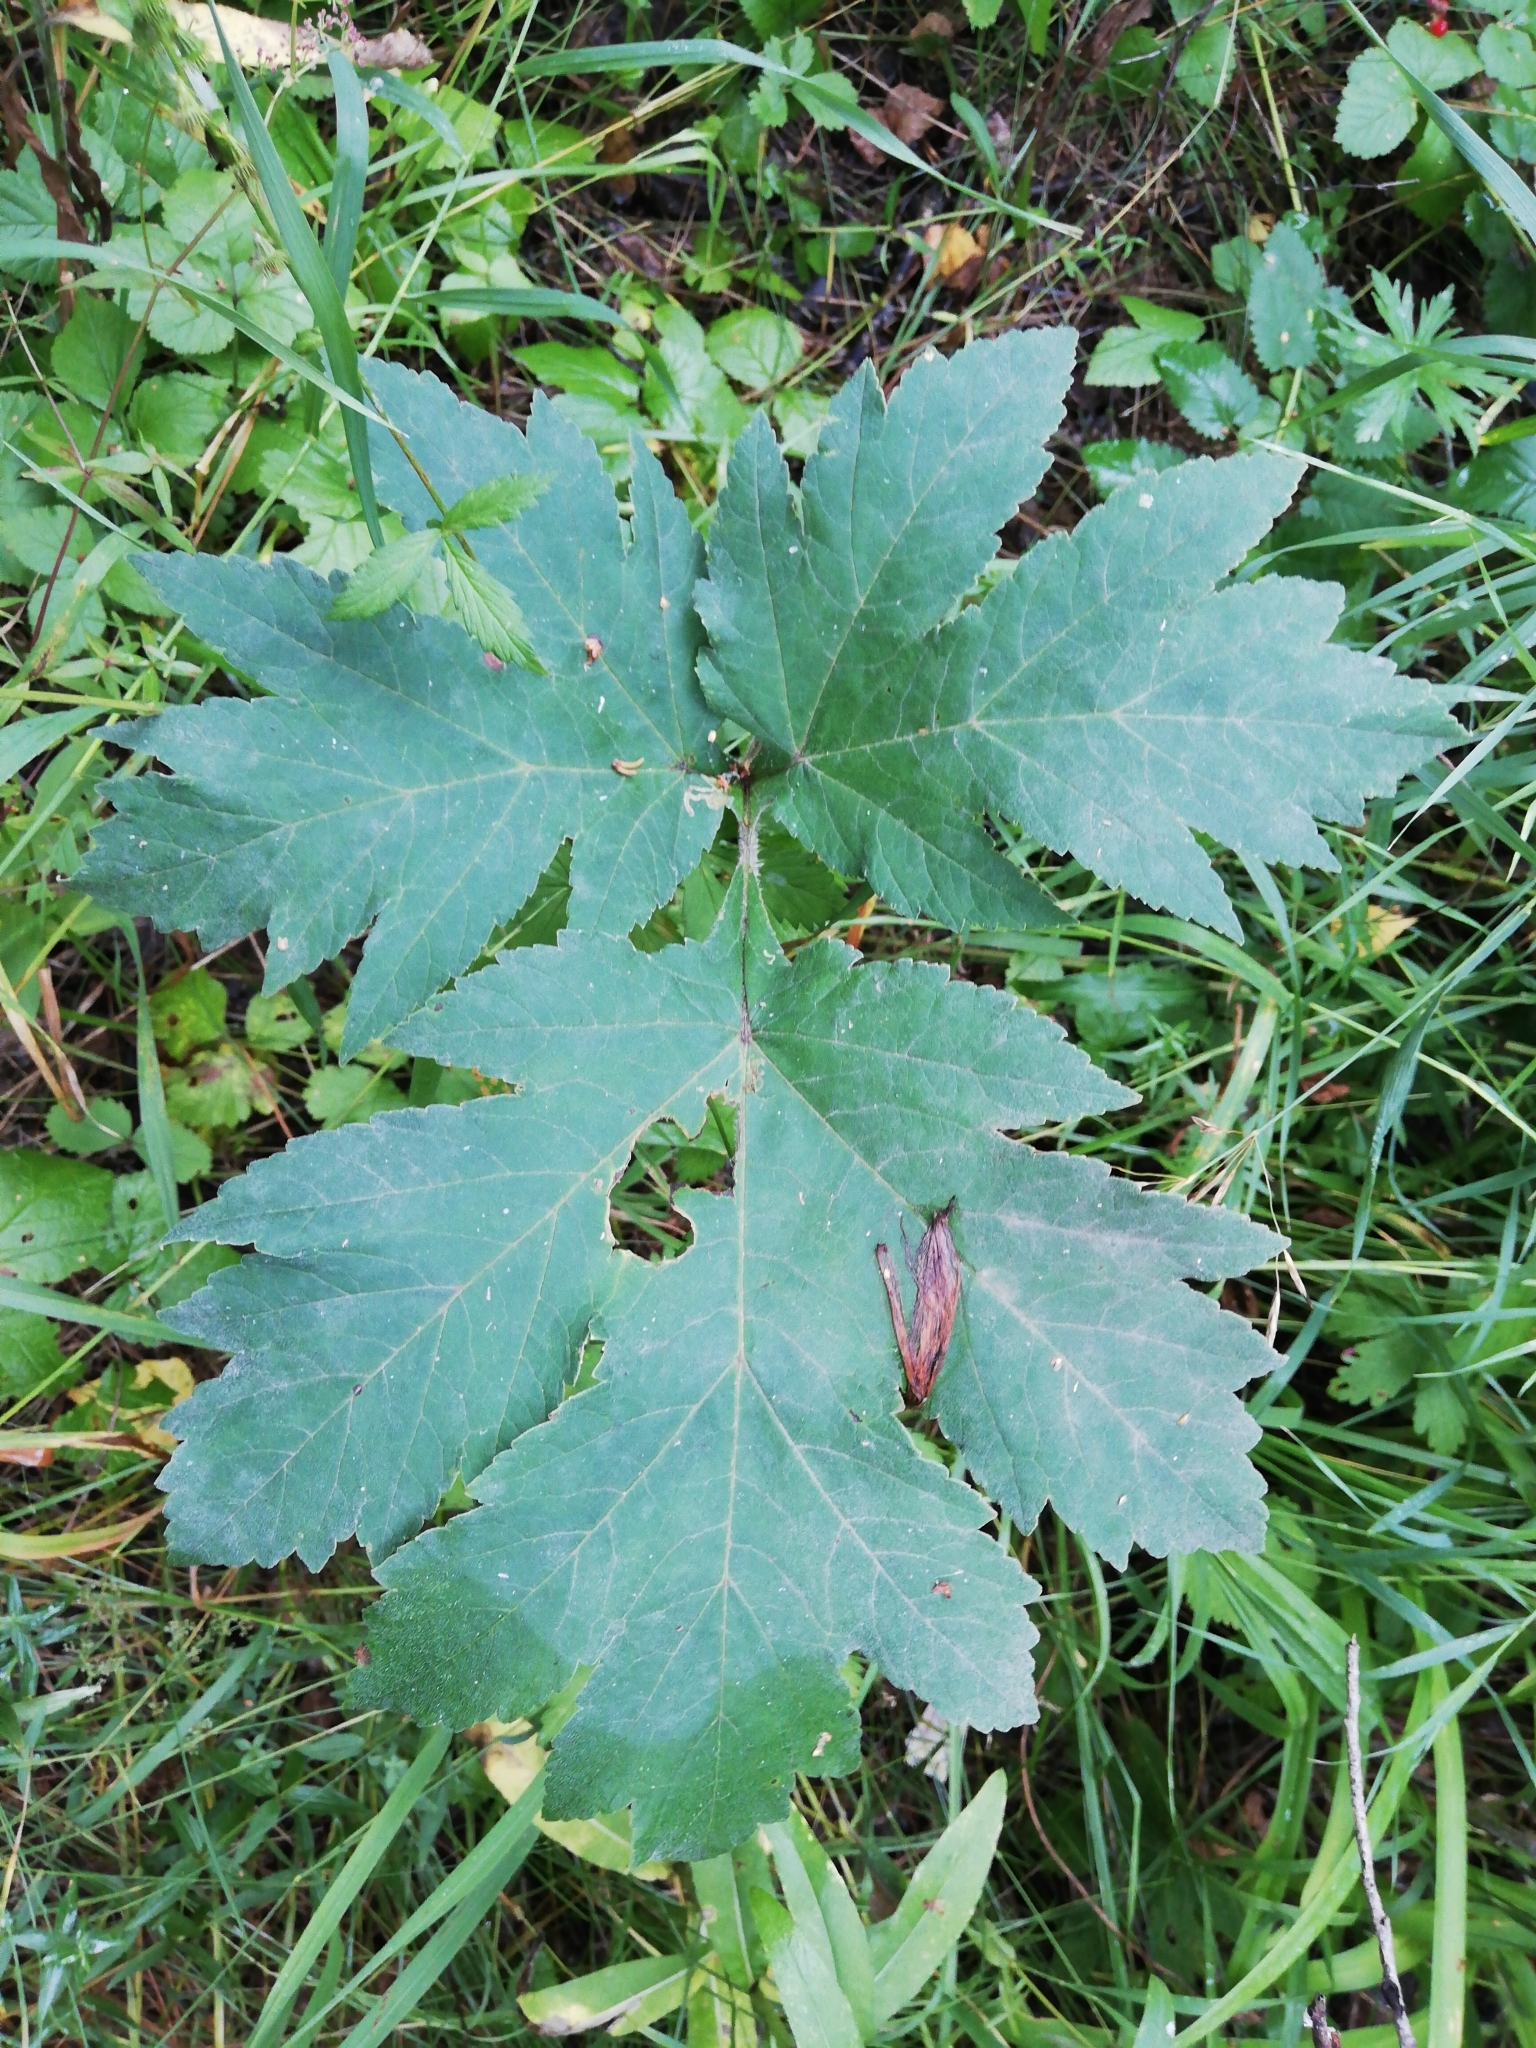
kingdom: Plantae
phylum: Tracheophyta
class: Magnoliopsida
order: Apiales
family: Apiaceae
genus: Heracleum
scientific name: Heracleum dissectum
